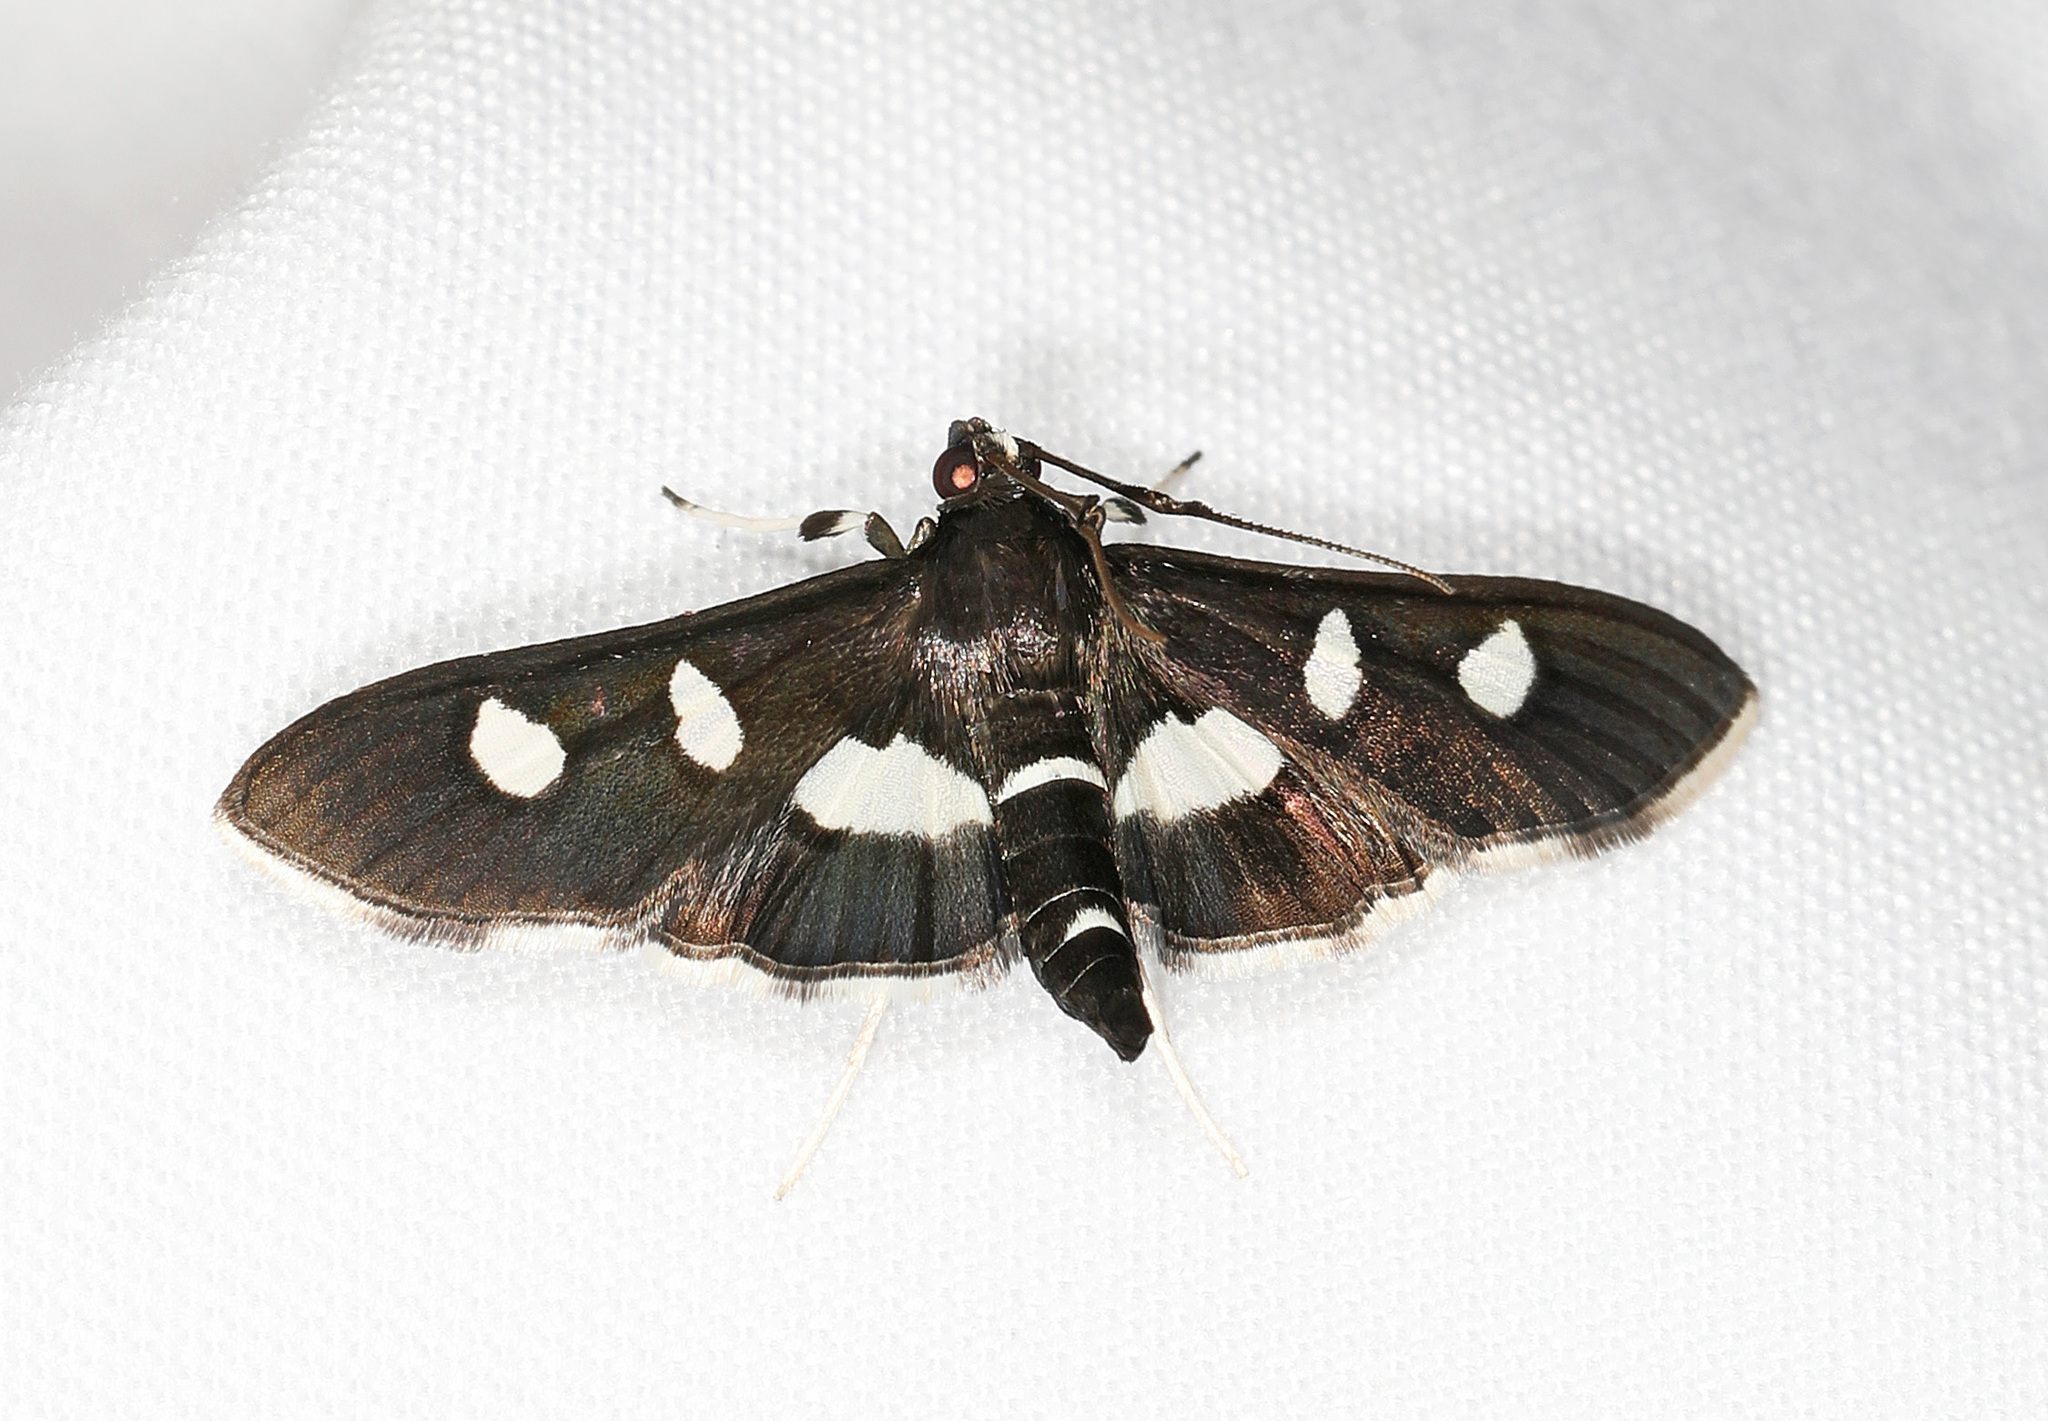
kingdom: Animalia
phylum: Arthropoda
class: Insecta
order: Lepidoptera
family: Crambidae
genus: Desmia
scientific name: Desmia
